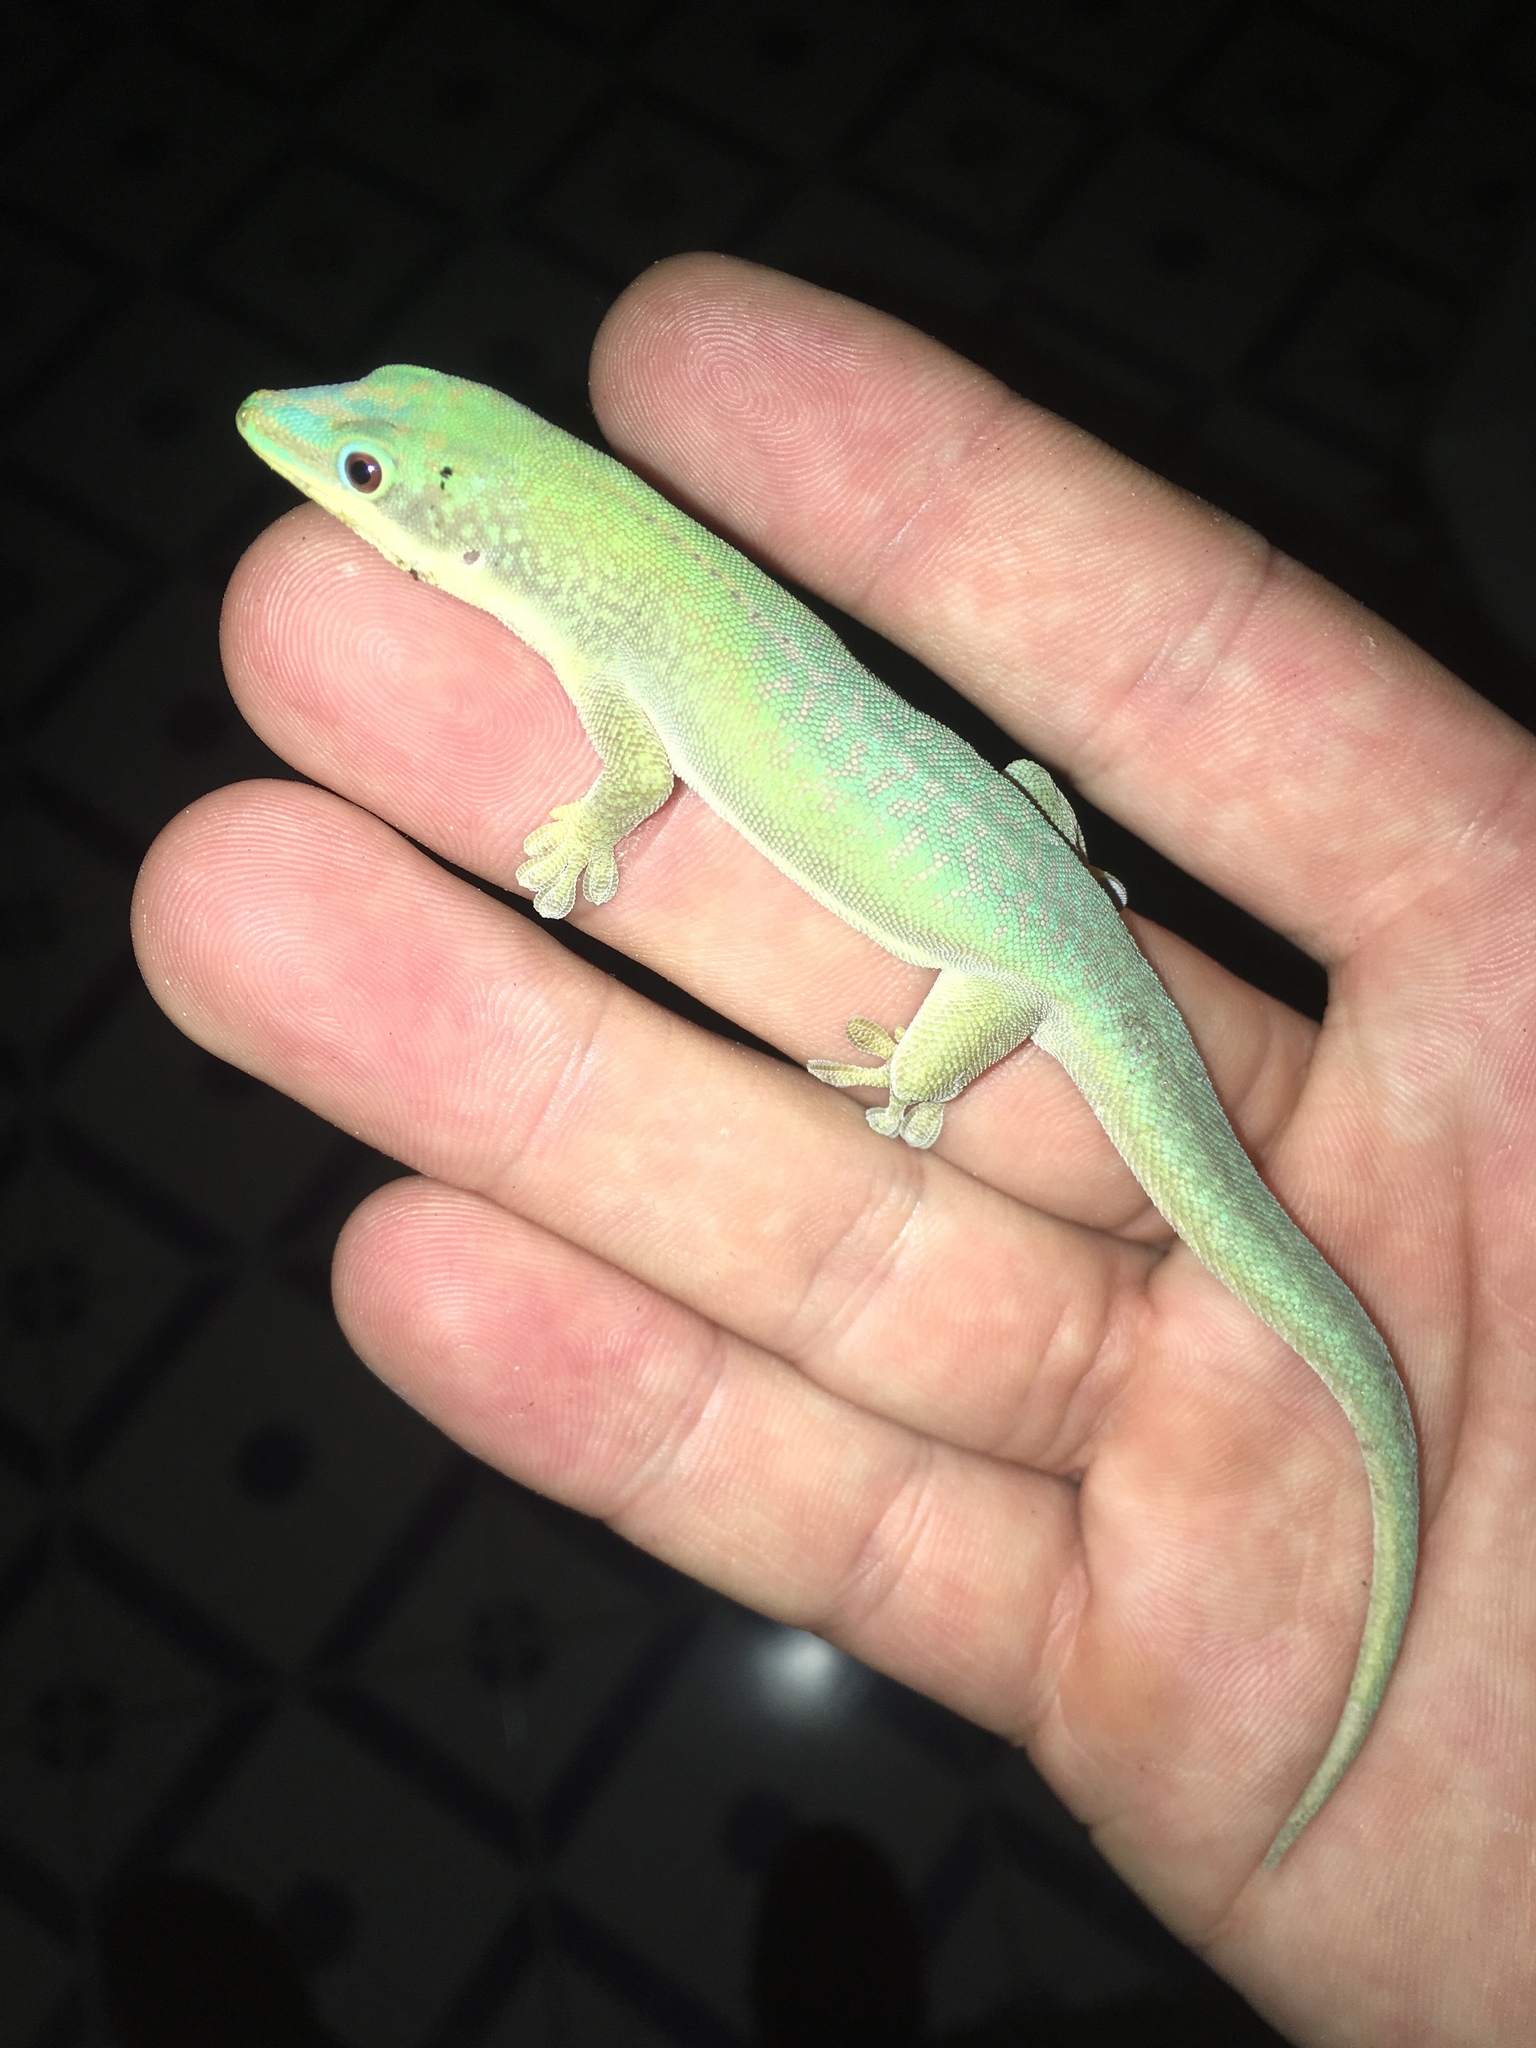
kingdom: Animalia
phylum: Chordata
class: Squamata
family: Gekkonidae
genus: Phelsuma
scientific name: Phelsuma hielscheri
